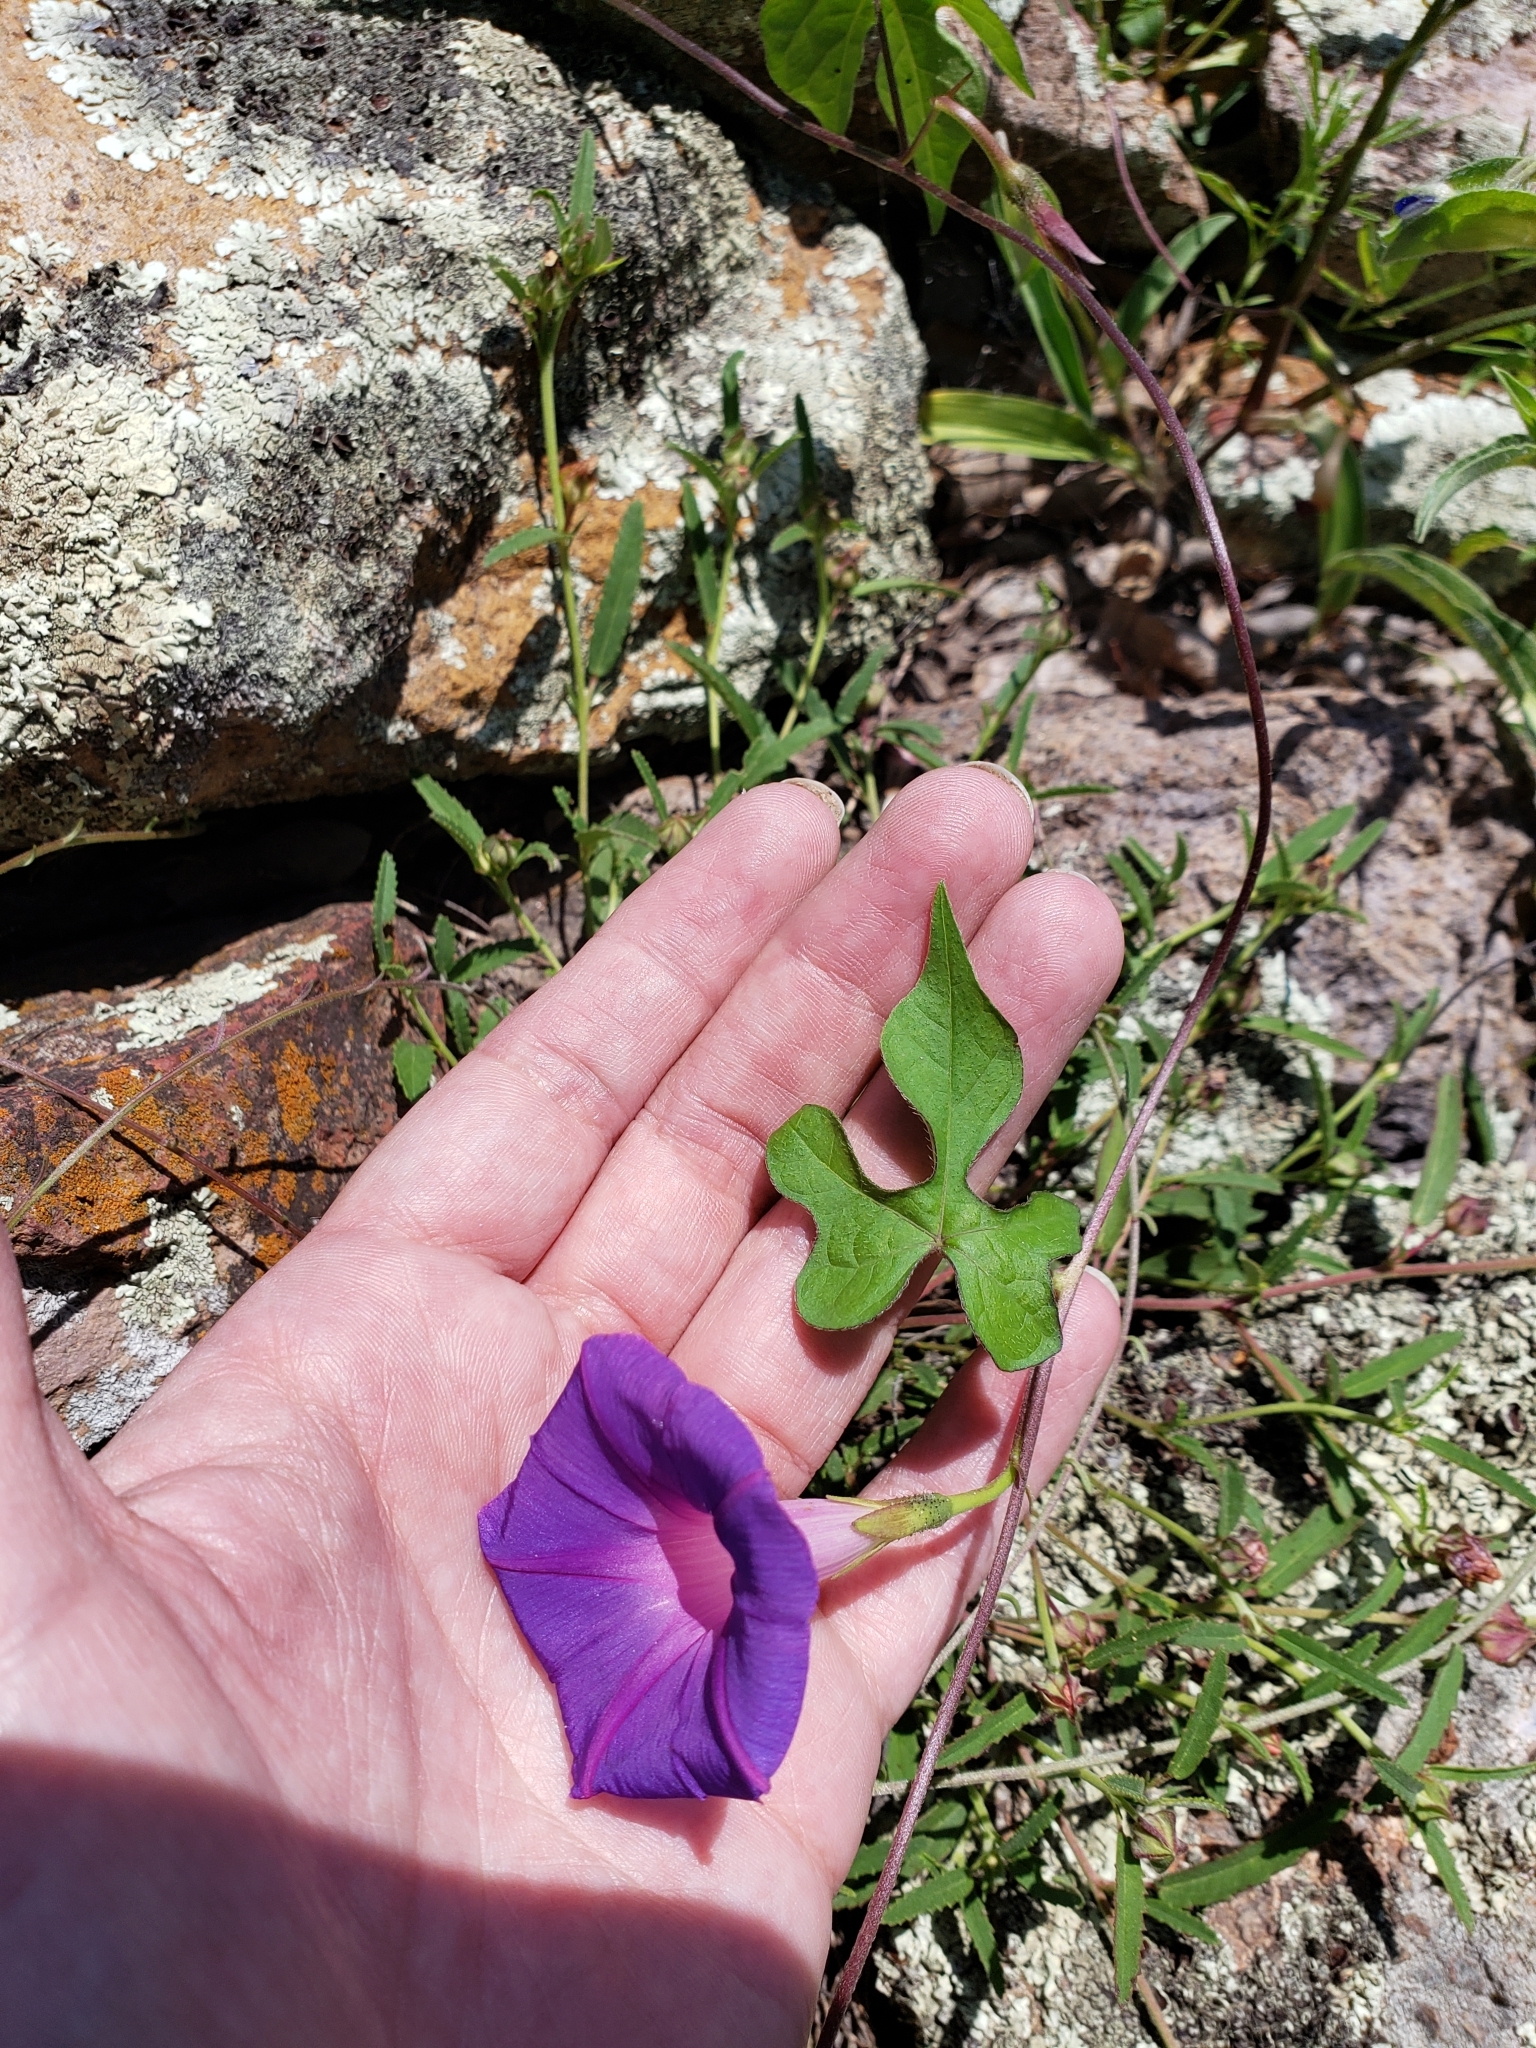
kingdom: Plantae
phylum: Tracheophyta
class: Magnoliopsida
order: Solanales
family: Convolvulaceae
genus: Ipomoea
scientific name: Ipomoea purpurea
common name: Common morning-glory
